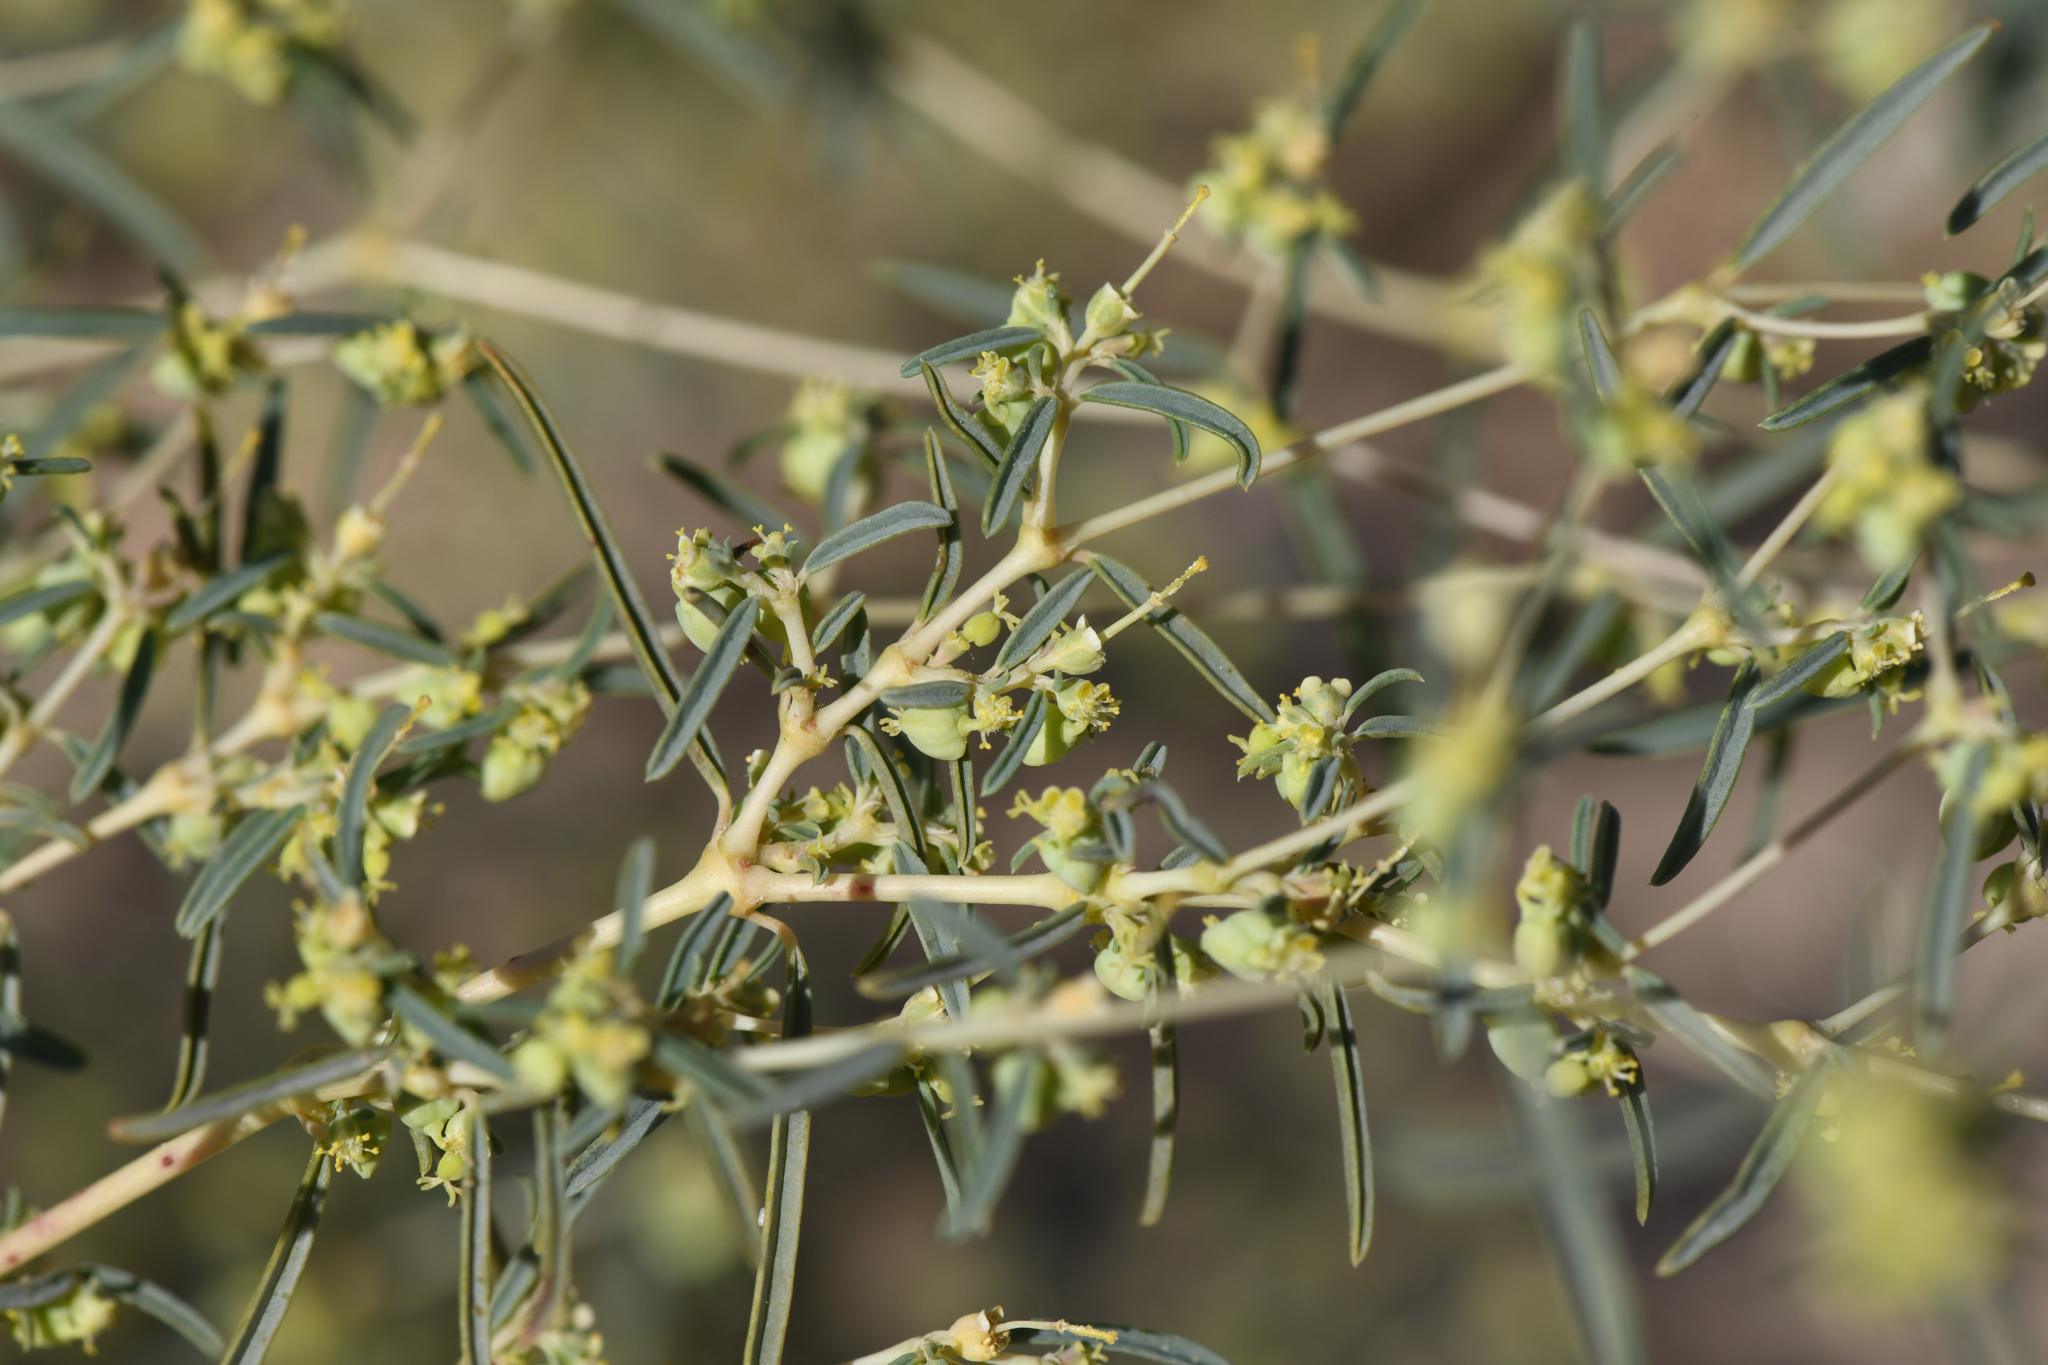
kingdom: Plantae
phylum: Tracheophyta
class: Magnoliopsida
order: Malpighiales
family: Euphorbiaceae
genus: Euphorbia
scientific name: Euphorbia parryi
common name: Dune spurge
